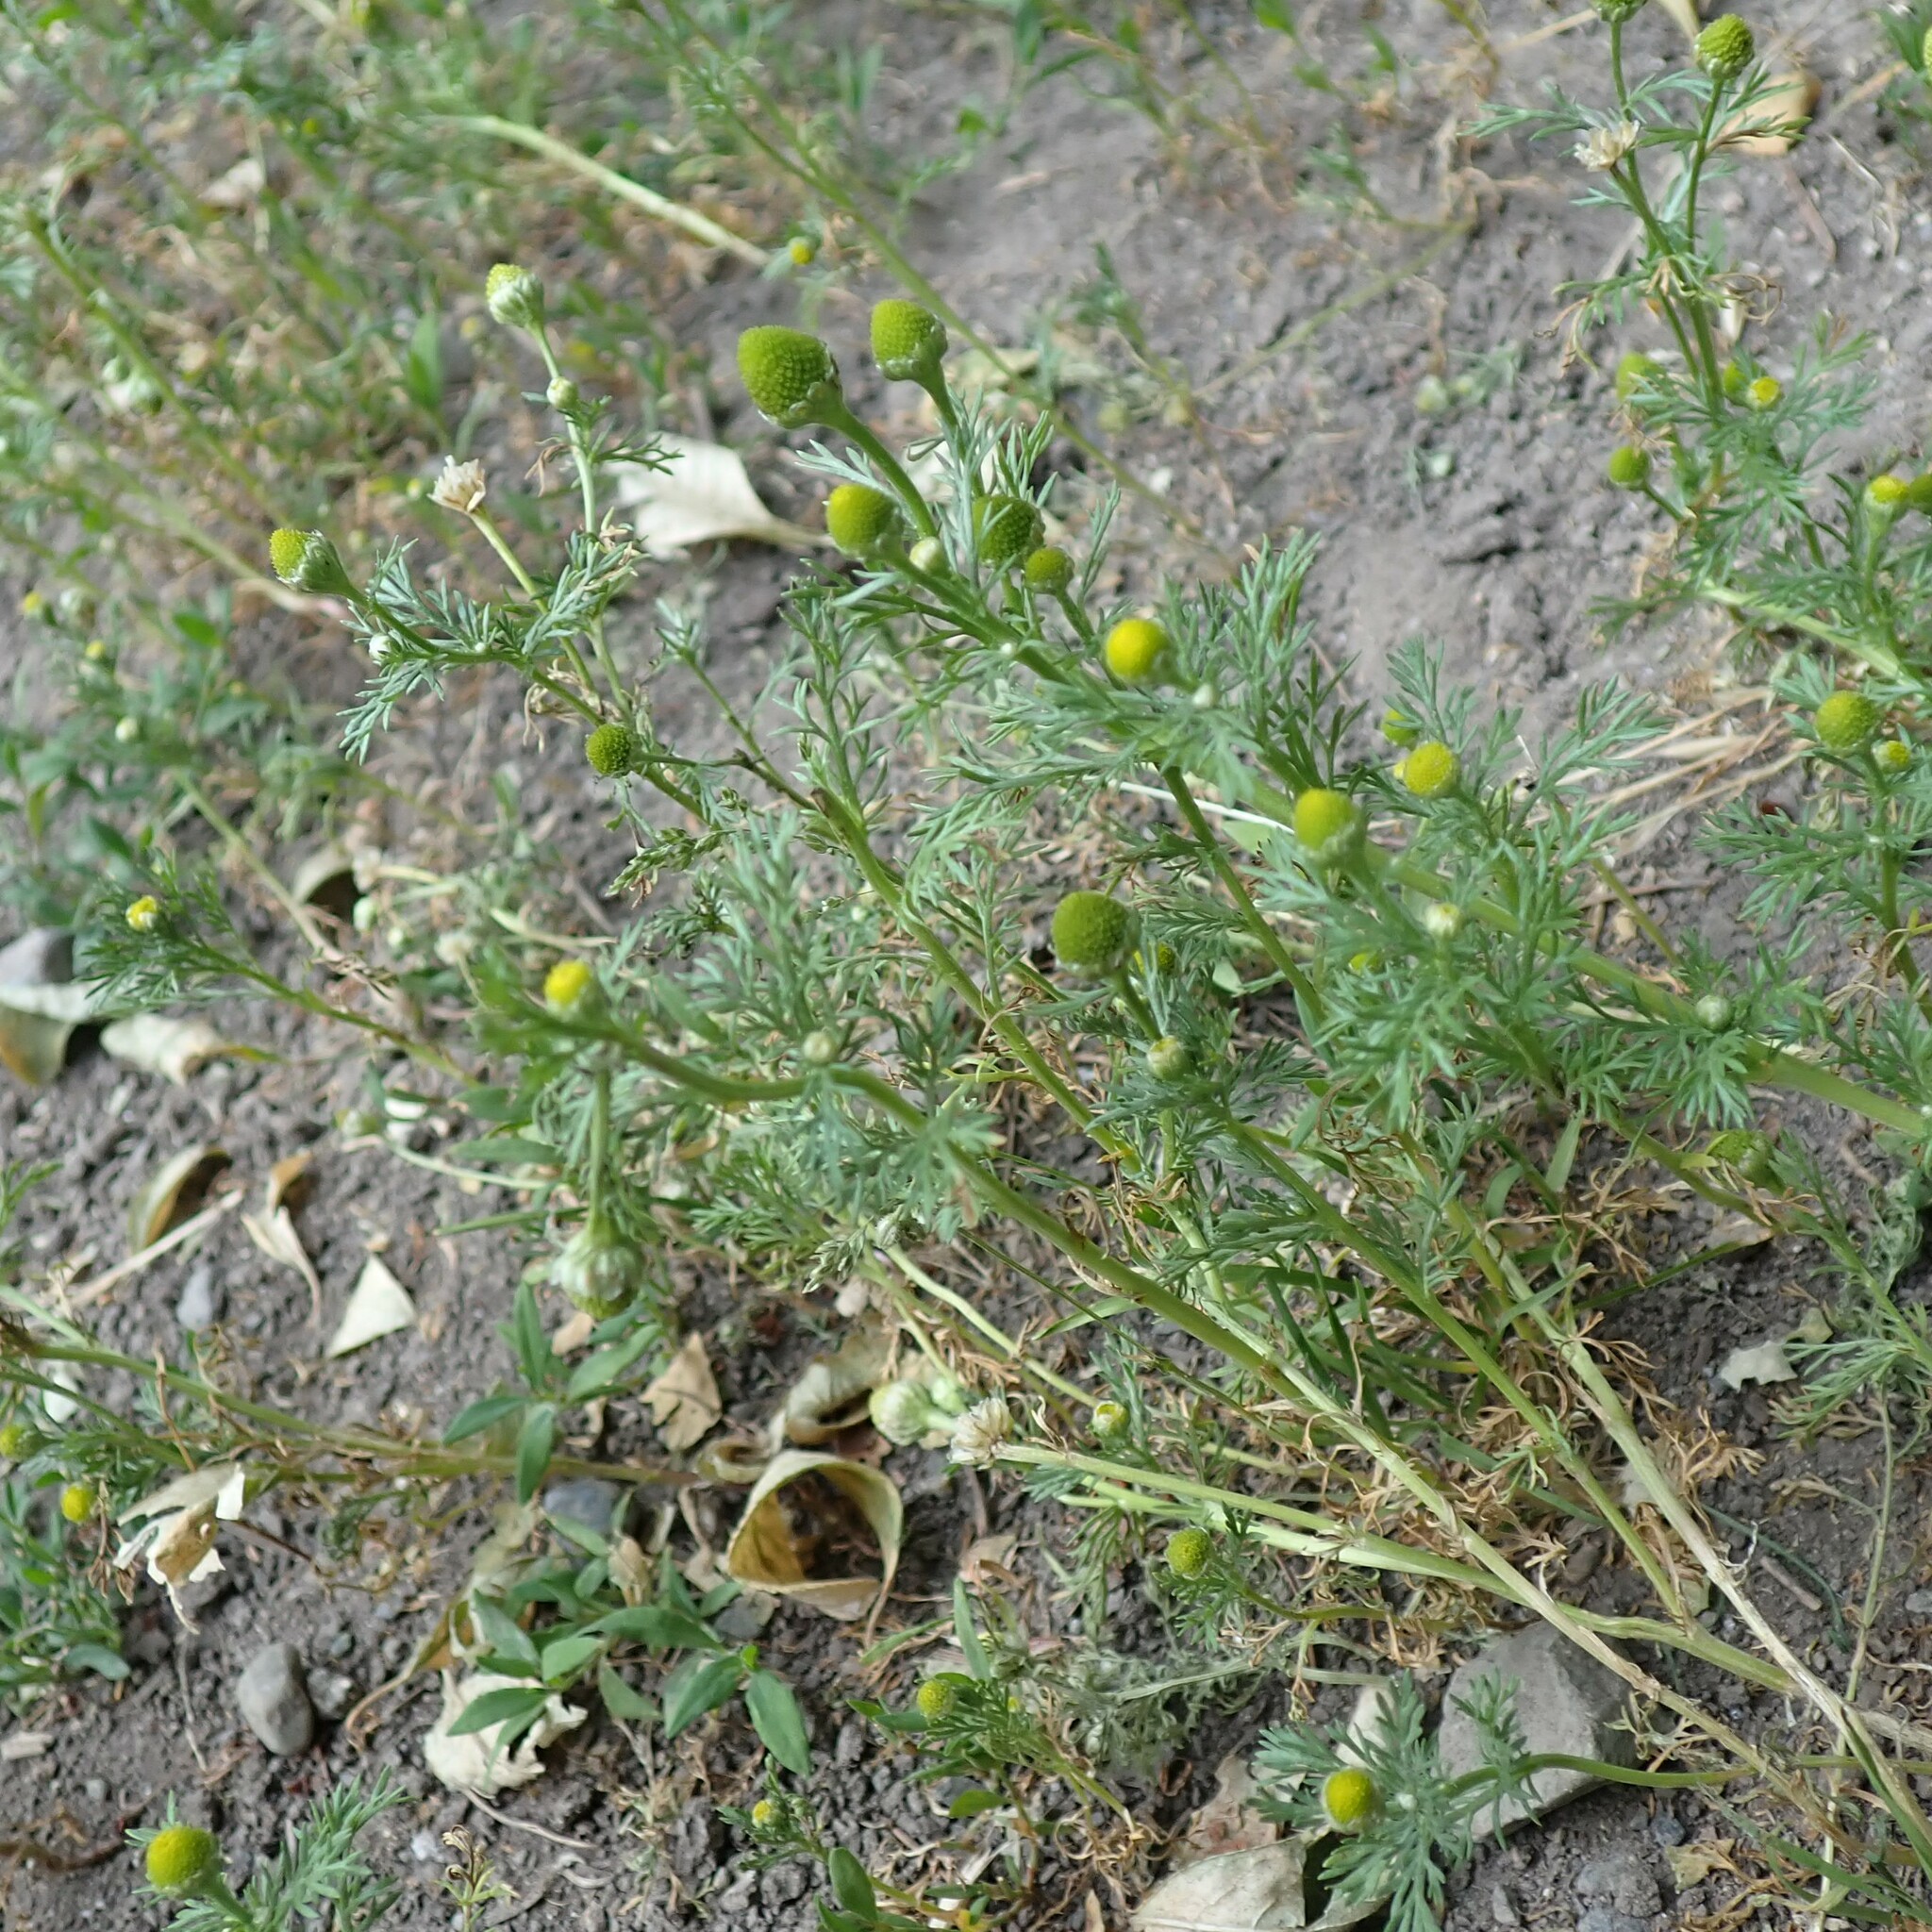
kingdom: Plantae
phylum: Tracheophyta
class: Magnoliopsida
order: Asterales
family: Asteraceae
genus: Matricaria
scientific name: Matricaria discoidea
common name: Disc mayweed
